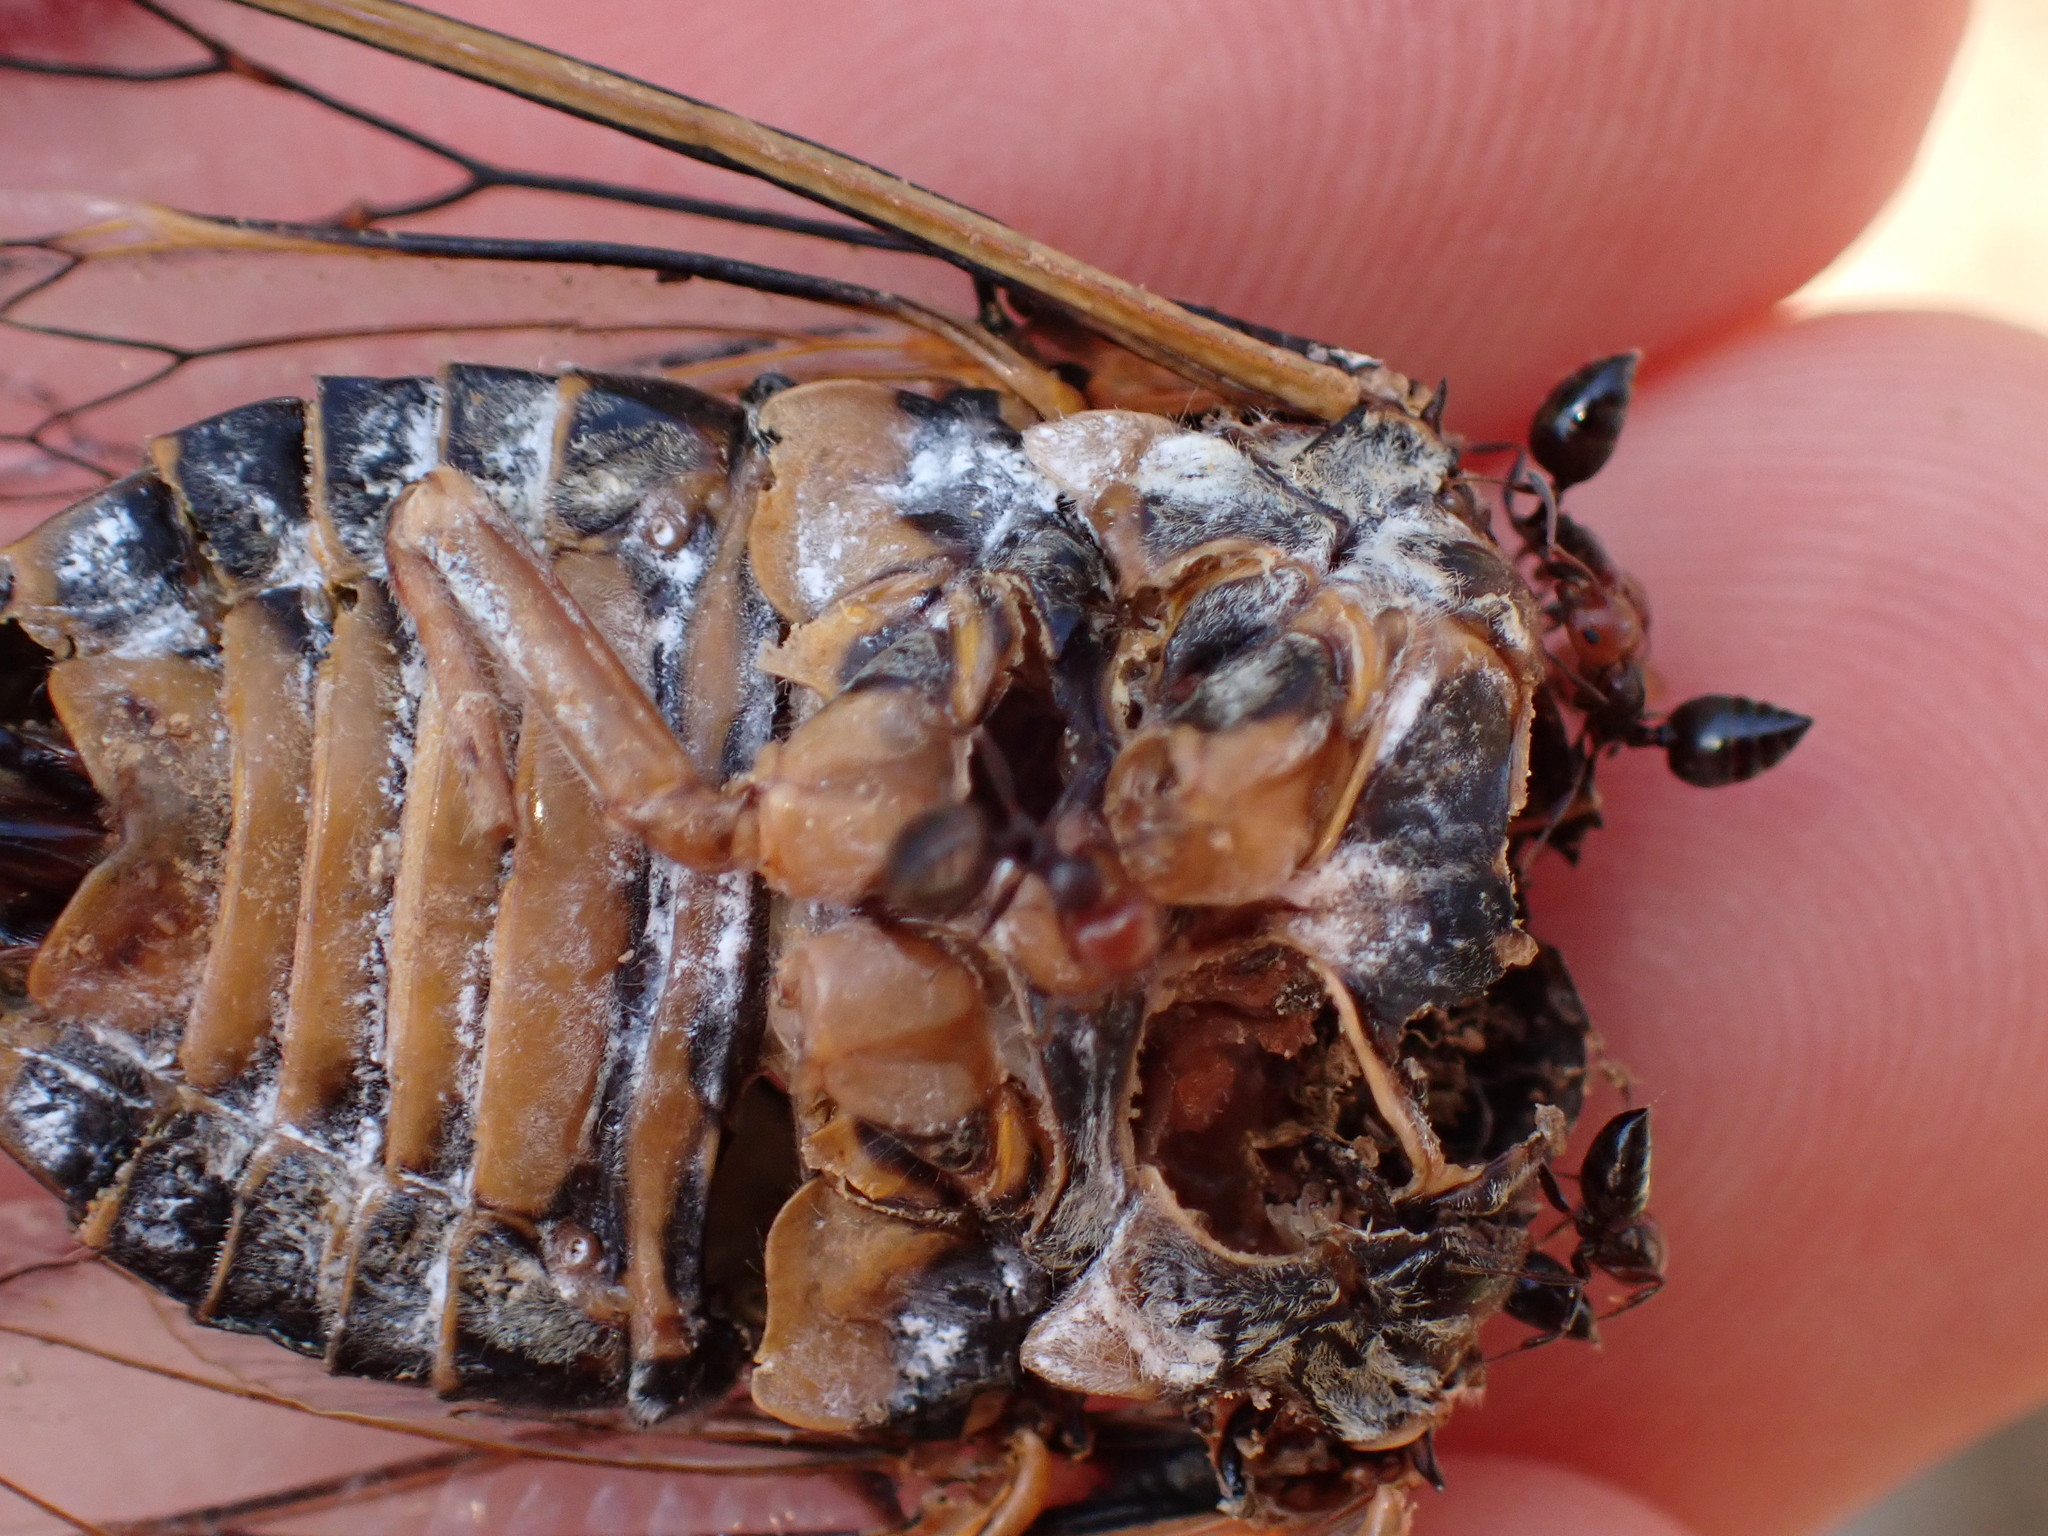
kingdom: Animalia
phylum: Arthropoda
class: Insecta
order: Hemiptera
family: Cicadidae
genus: Lyristes
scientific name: Lyristes plebejus
